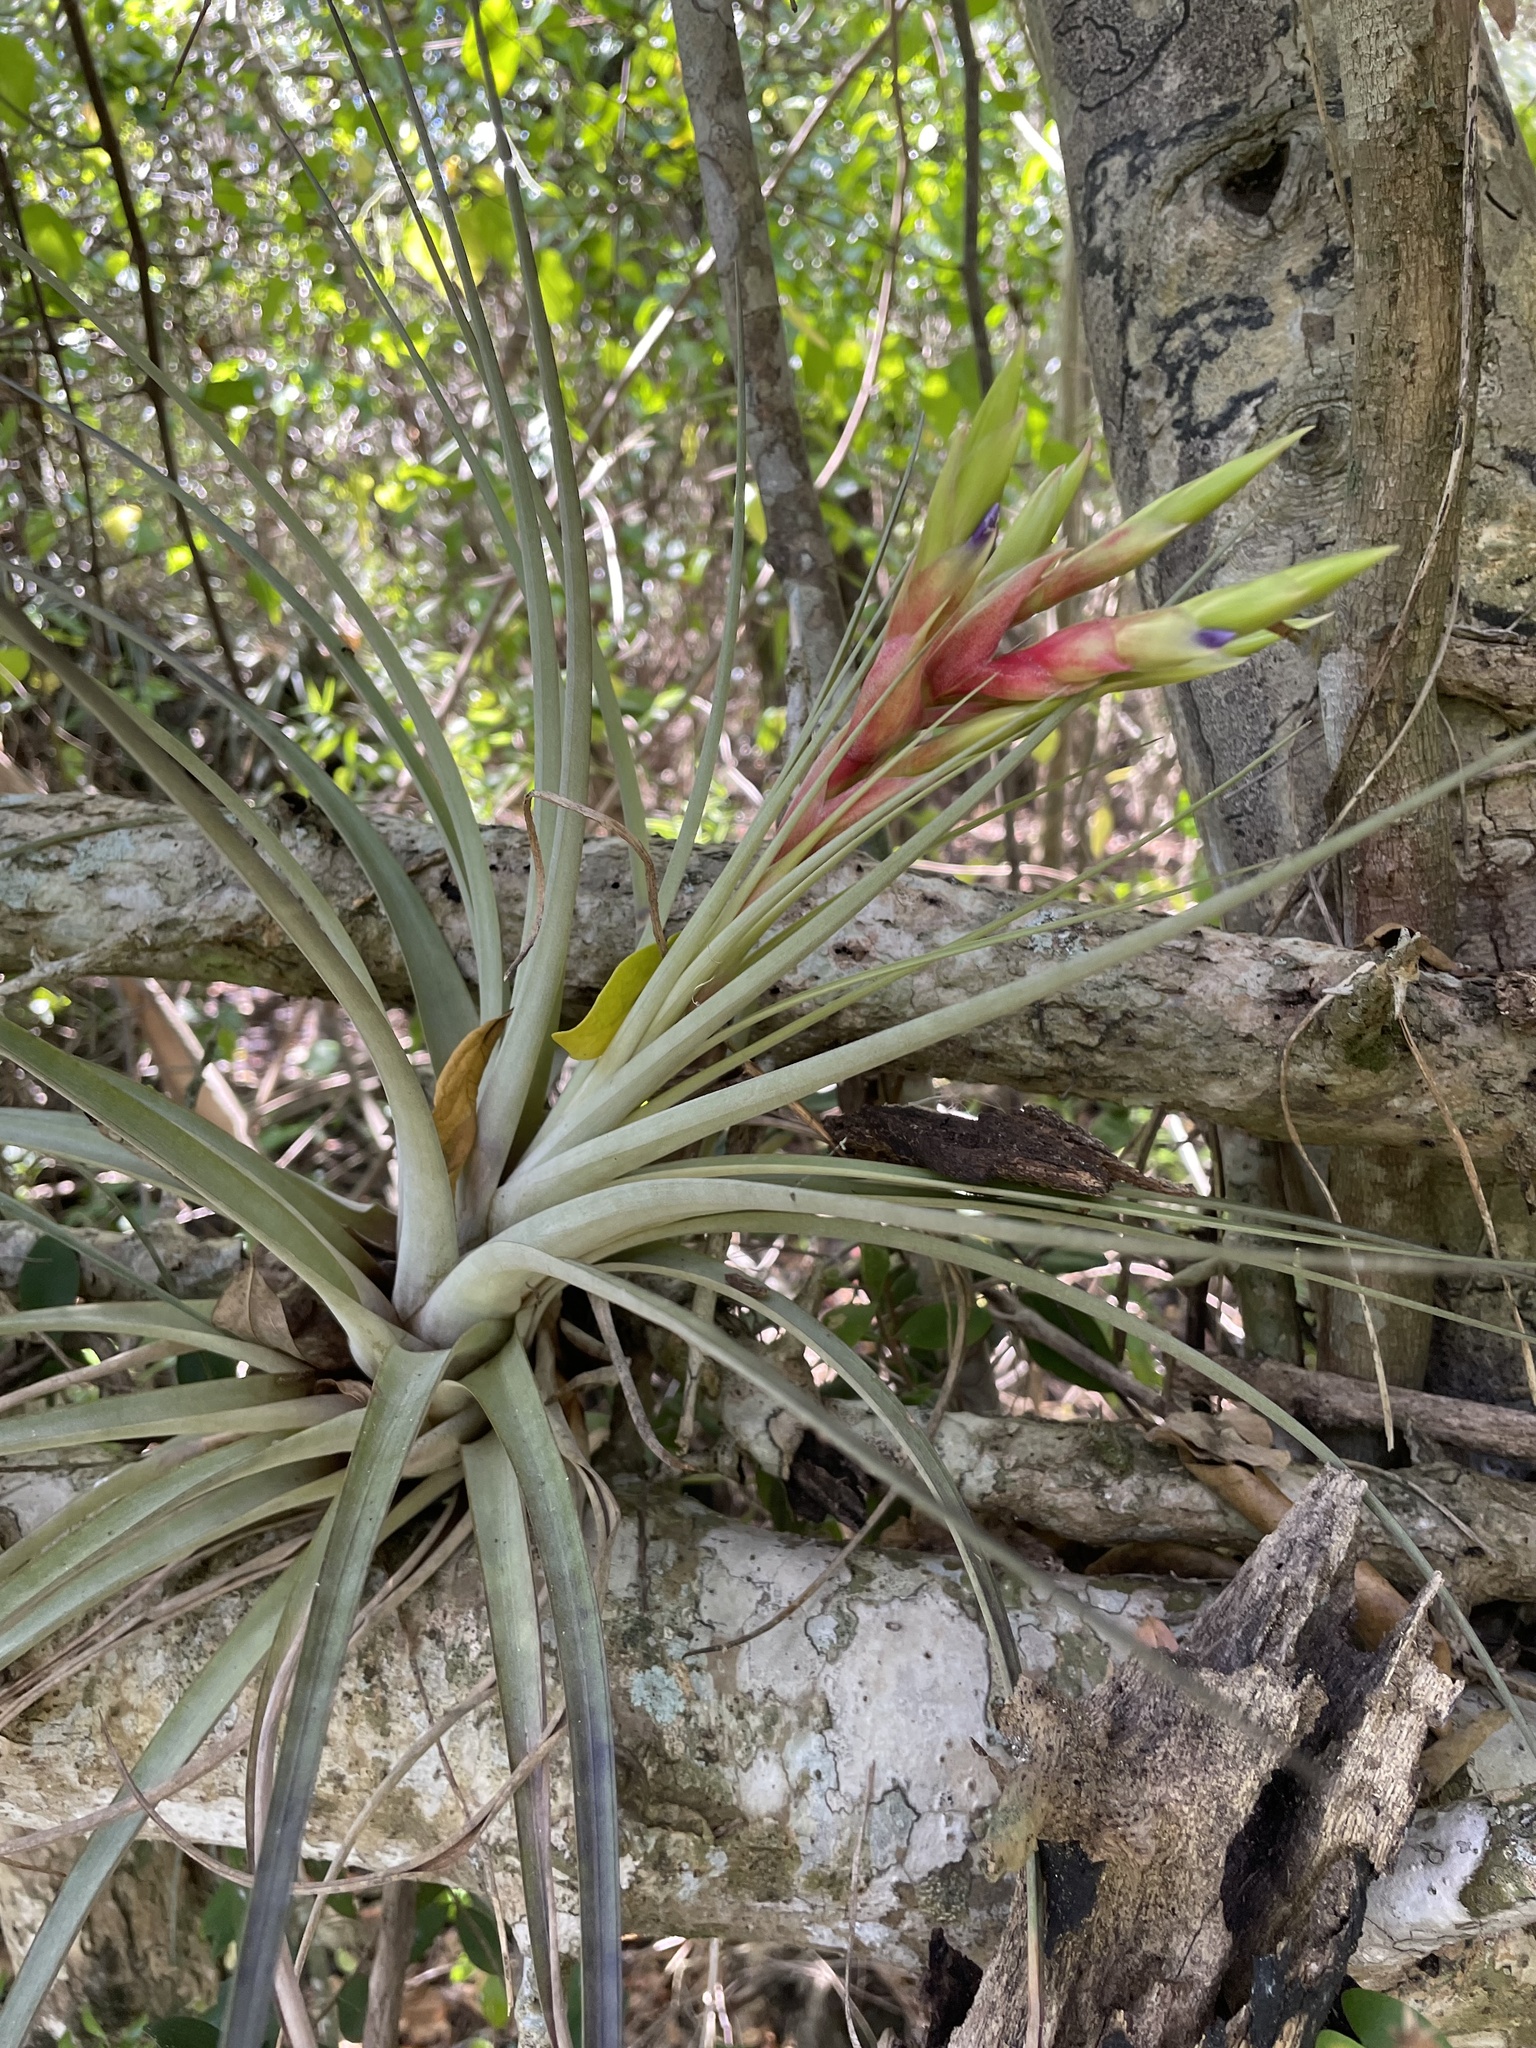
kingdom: Plantae
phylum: Tracheophyta
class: Liliopsida
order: Poales
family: Bromeliaceae
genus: Tillandsia
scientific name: Tillandsia fasciculata
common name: Giant airplant
